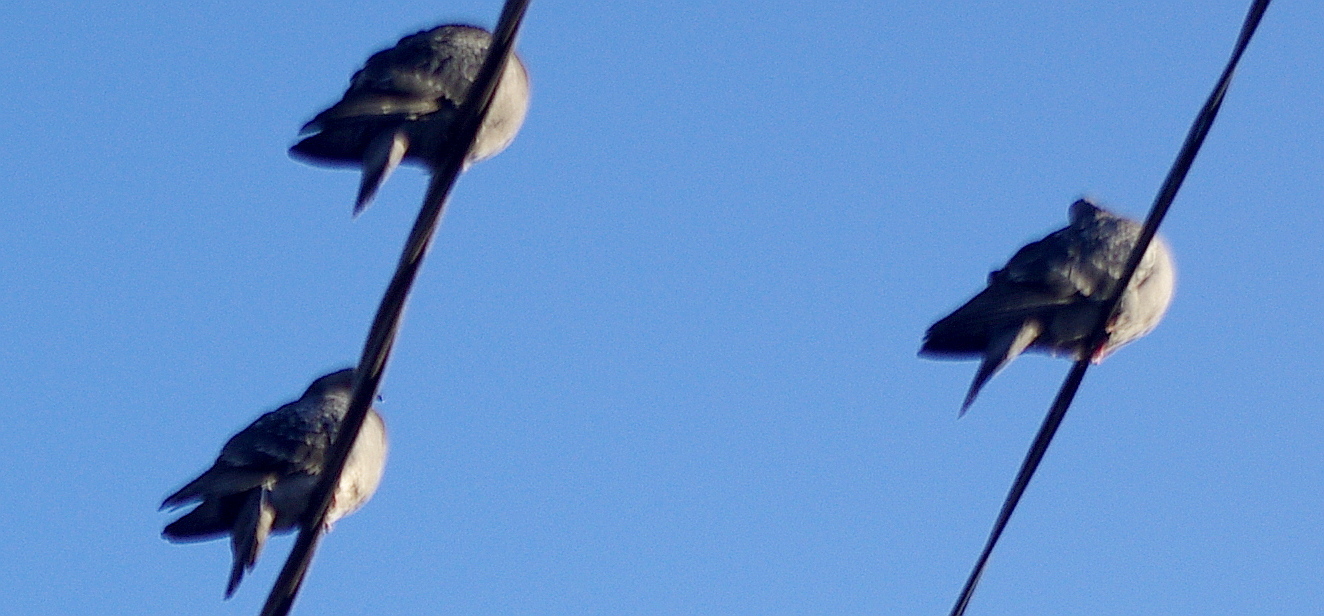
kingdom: Animalia
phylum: Chordata
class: Aves
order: Columbiformes
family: Columbidae
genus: Columba
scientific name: Columba livia
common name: Rock pigeon
